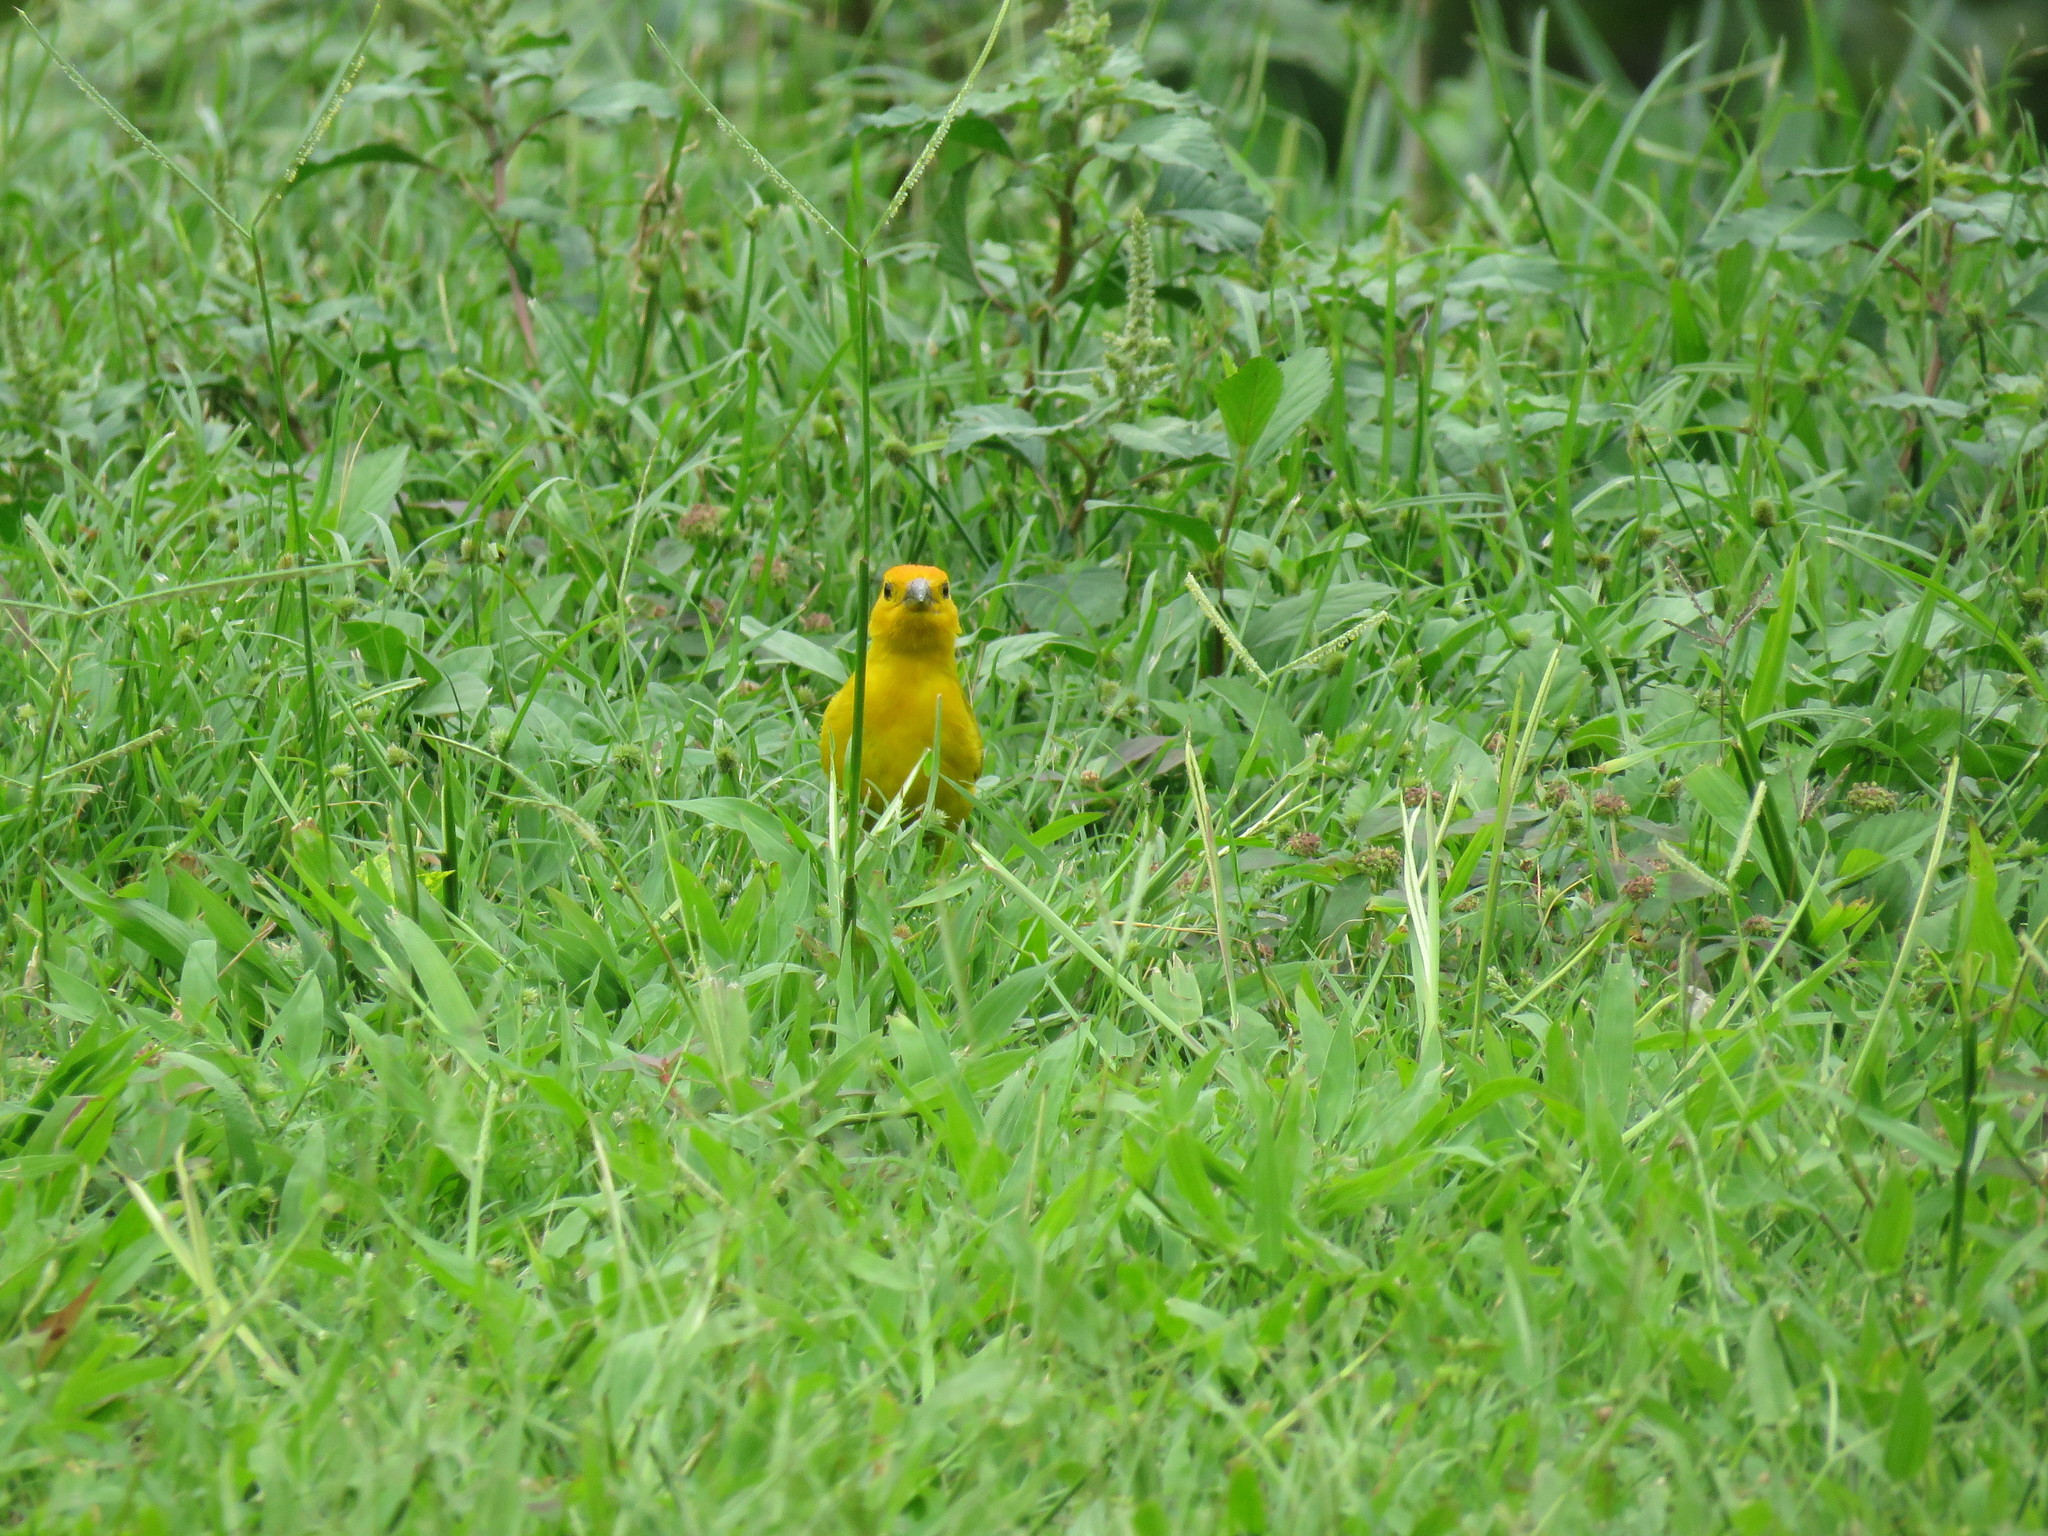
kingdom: Animalia
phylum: Chordata
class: Aves
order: Passeriformes
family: Thraupidae
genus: Sicalis
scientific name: Sicalis flaveola
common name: Saffron finch
